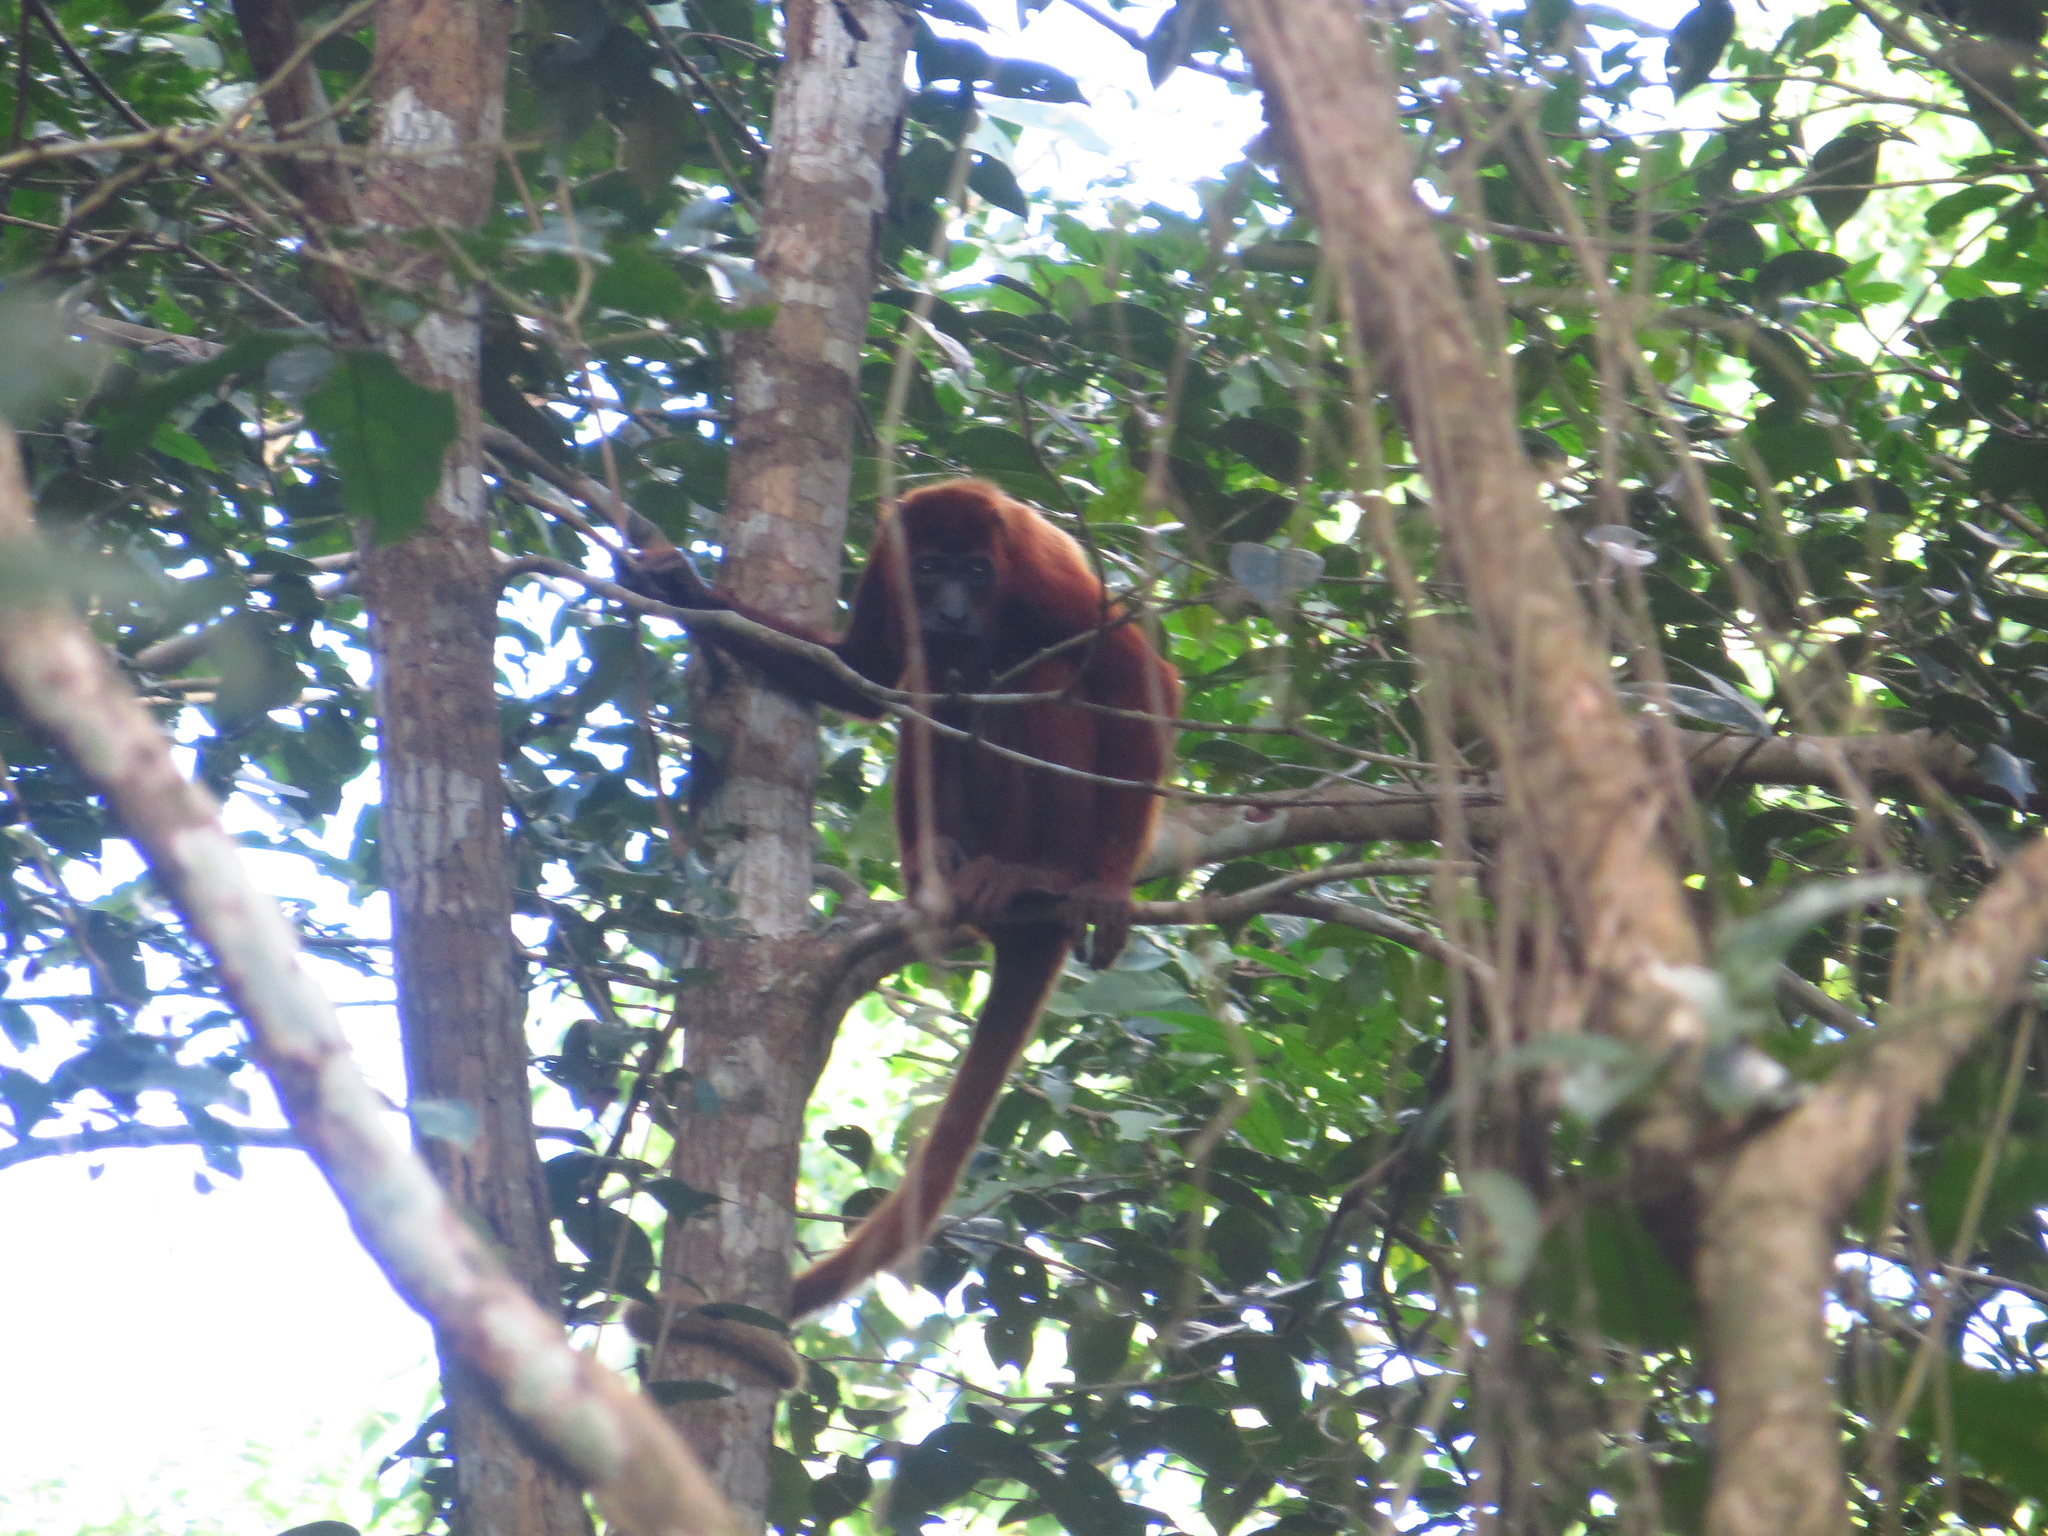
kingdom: Animalia
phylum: Chordata
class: Mammalia
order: Primates
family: Atelidae
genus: Alouatta
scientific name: Alouatta seniculus
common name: Venezuelan red howler
